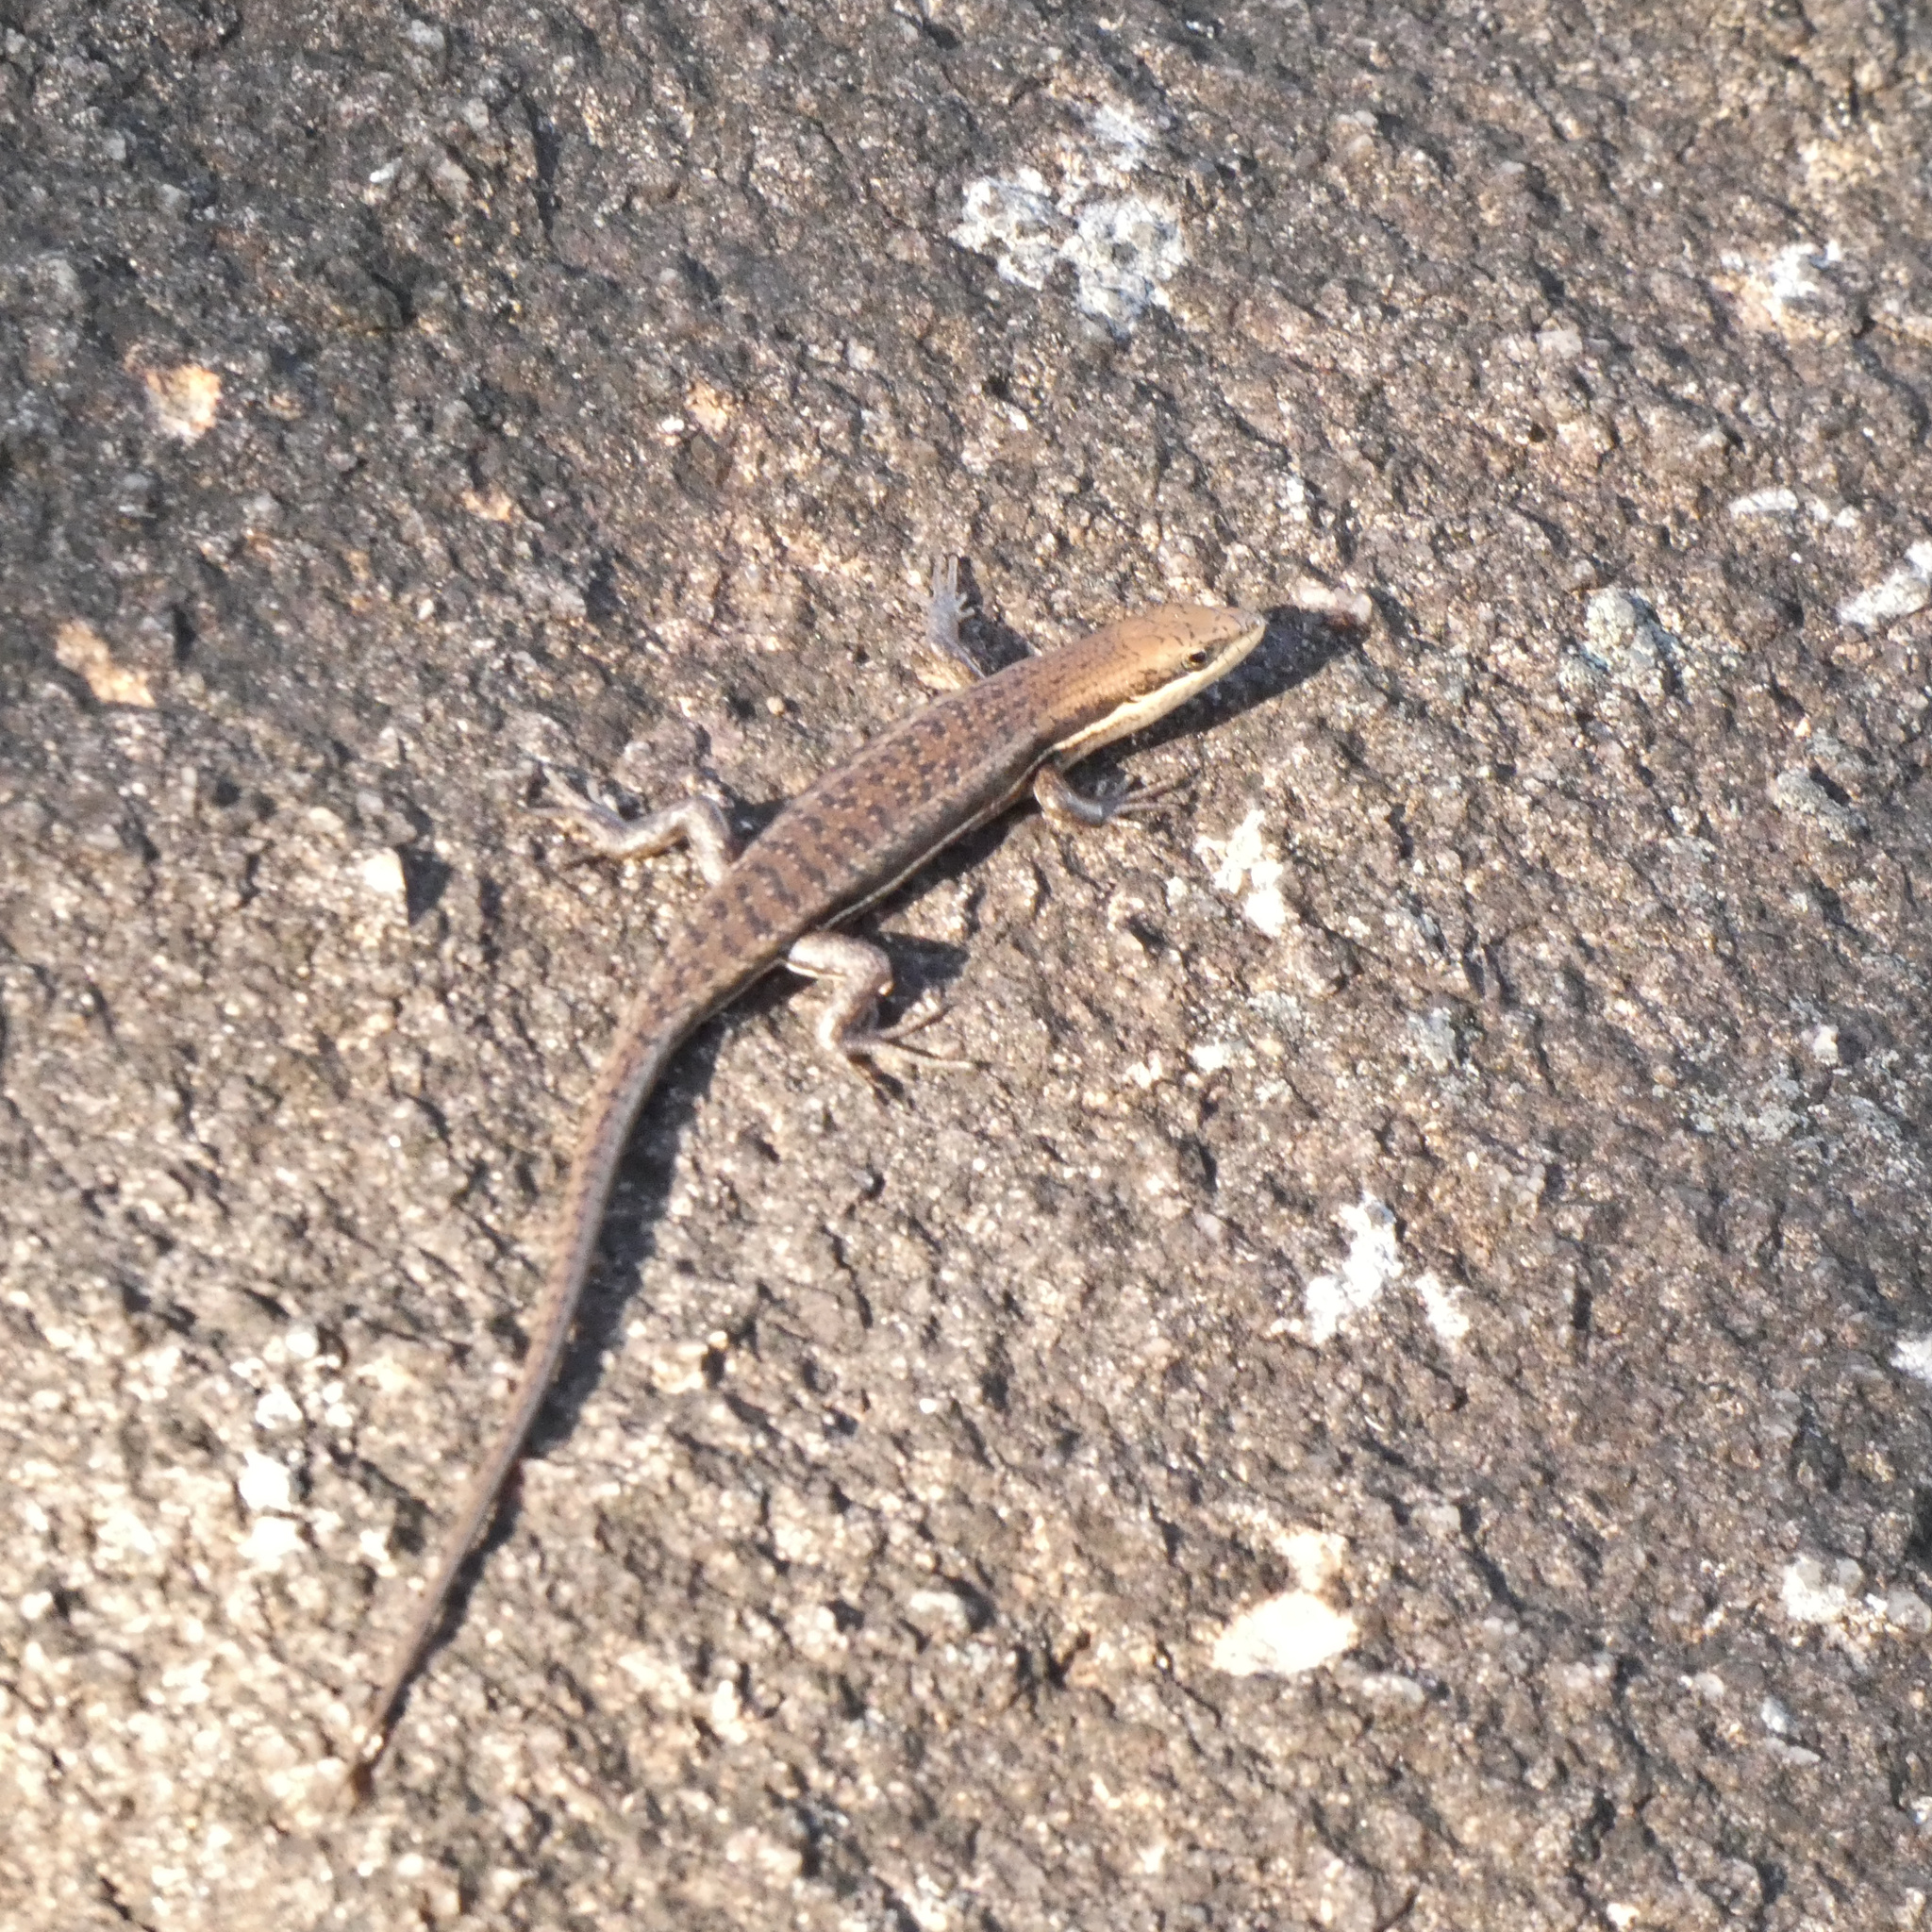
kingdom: Animalia
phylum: Chordata
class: Squamata
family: Scincidae
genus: Trachylepis
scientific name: Trachylepis varia
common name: Eastern variable skink
